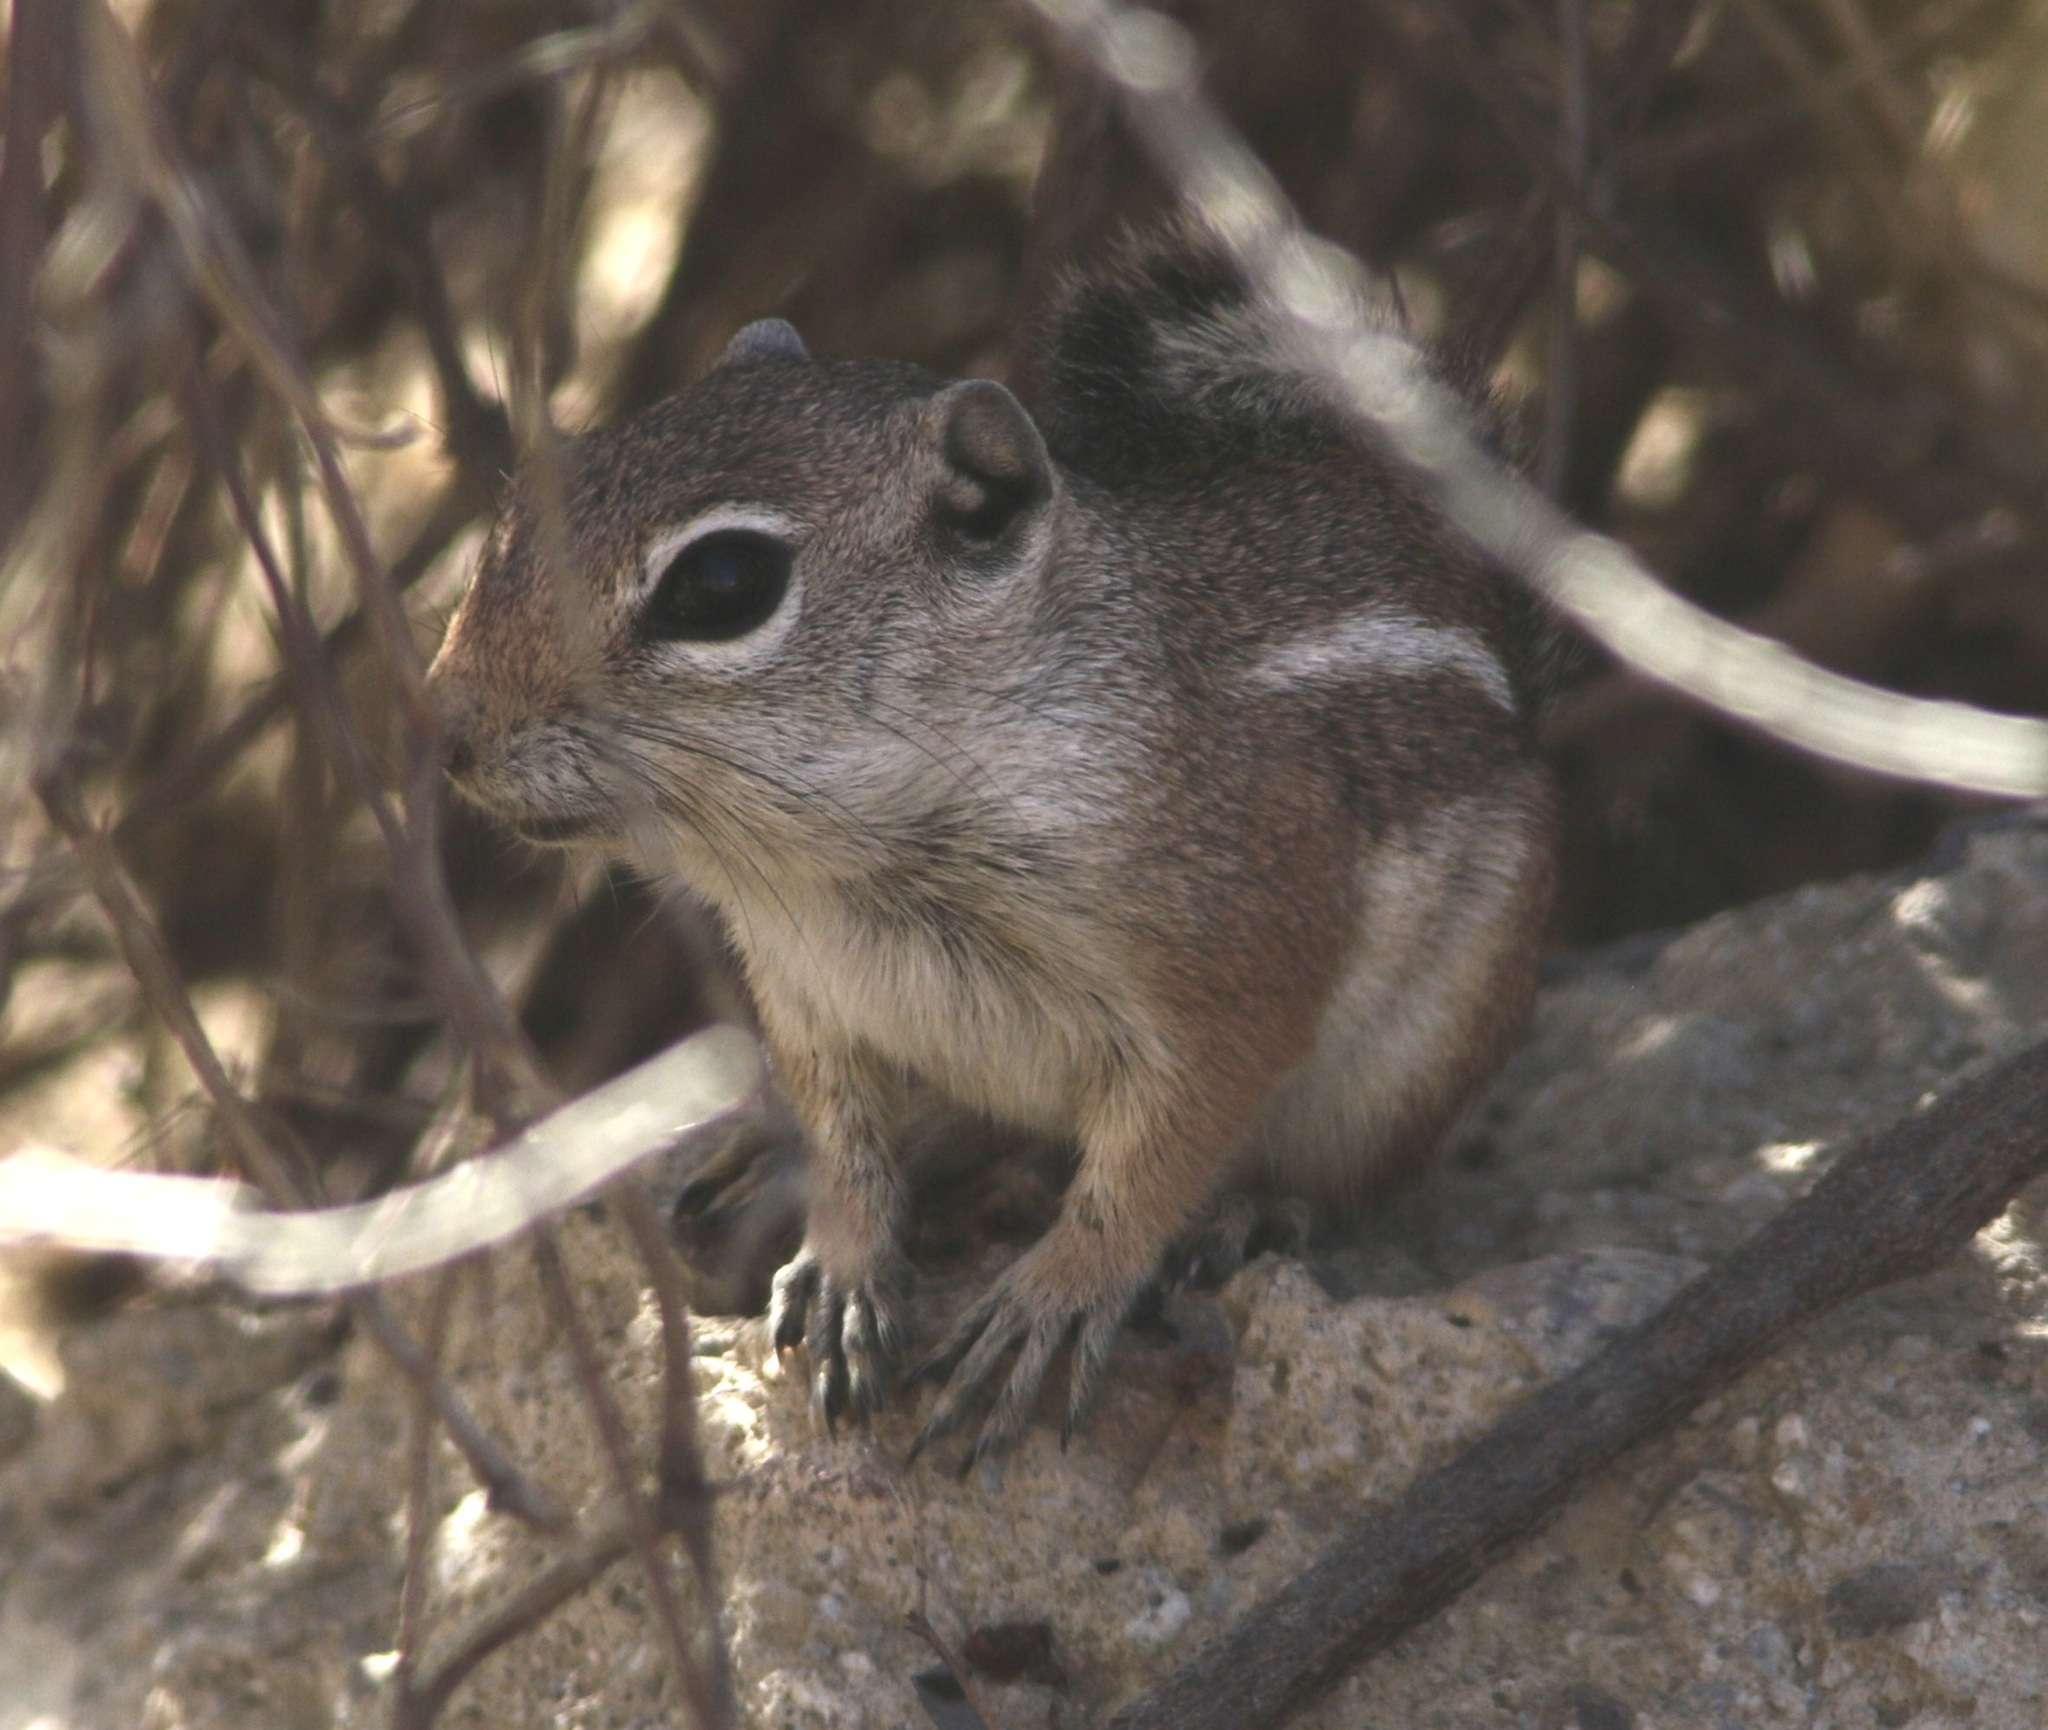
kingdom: Animalia
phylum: Chordata
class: Mammalia
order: Rodentia
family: Sciuridae
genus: Ammospermophilus
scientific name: Ammospermophilus leucurus
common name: White-tailed antelope squirrel
